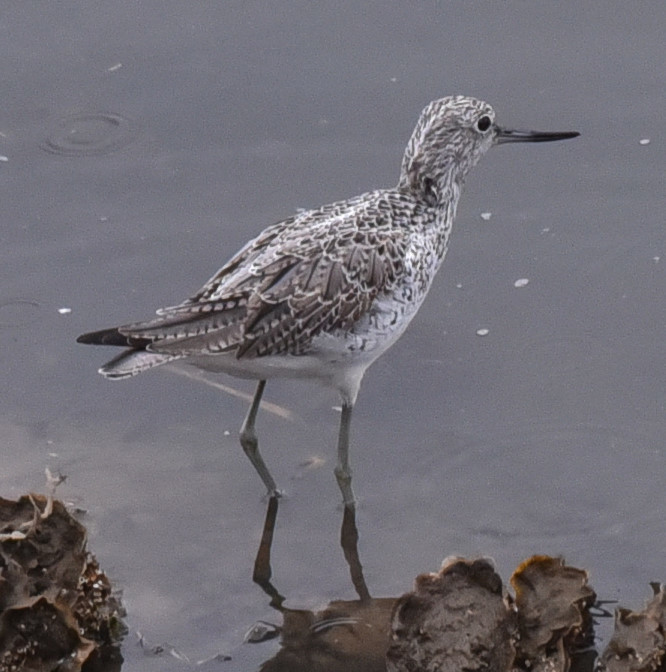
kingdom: Animalia
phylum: Chordata
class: Aves
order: Charadriiformes
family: Scolopacidae
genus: Tringa
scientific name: Tringa nebularia
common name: Common greenshank
